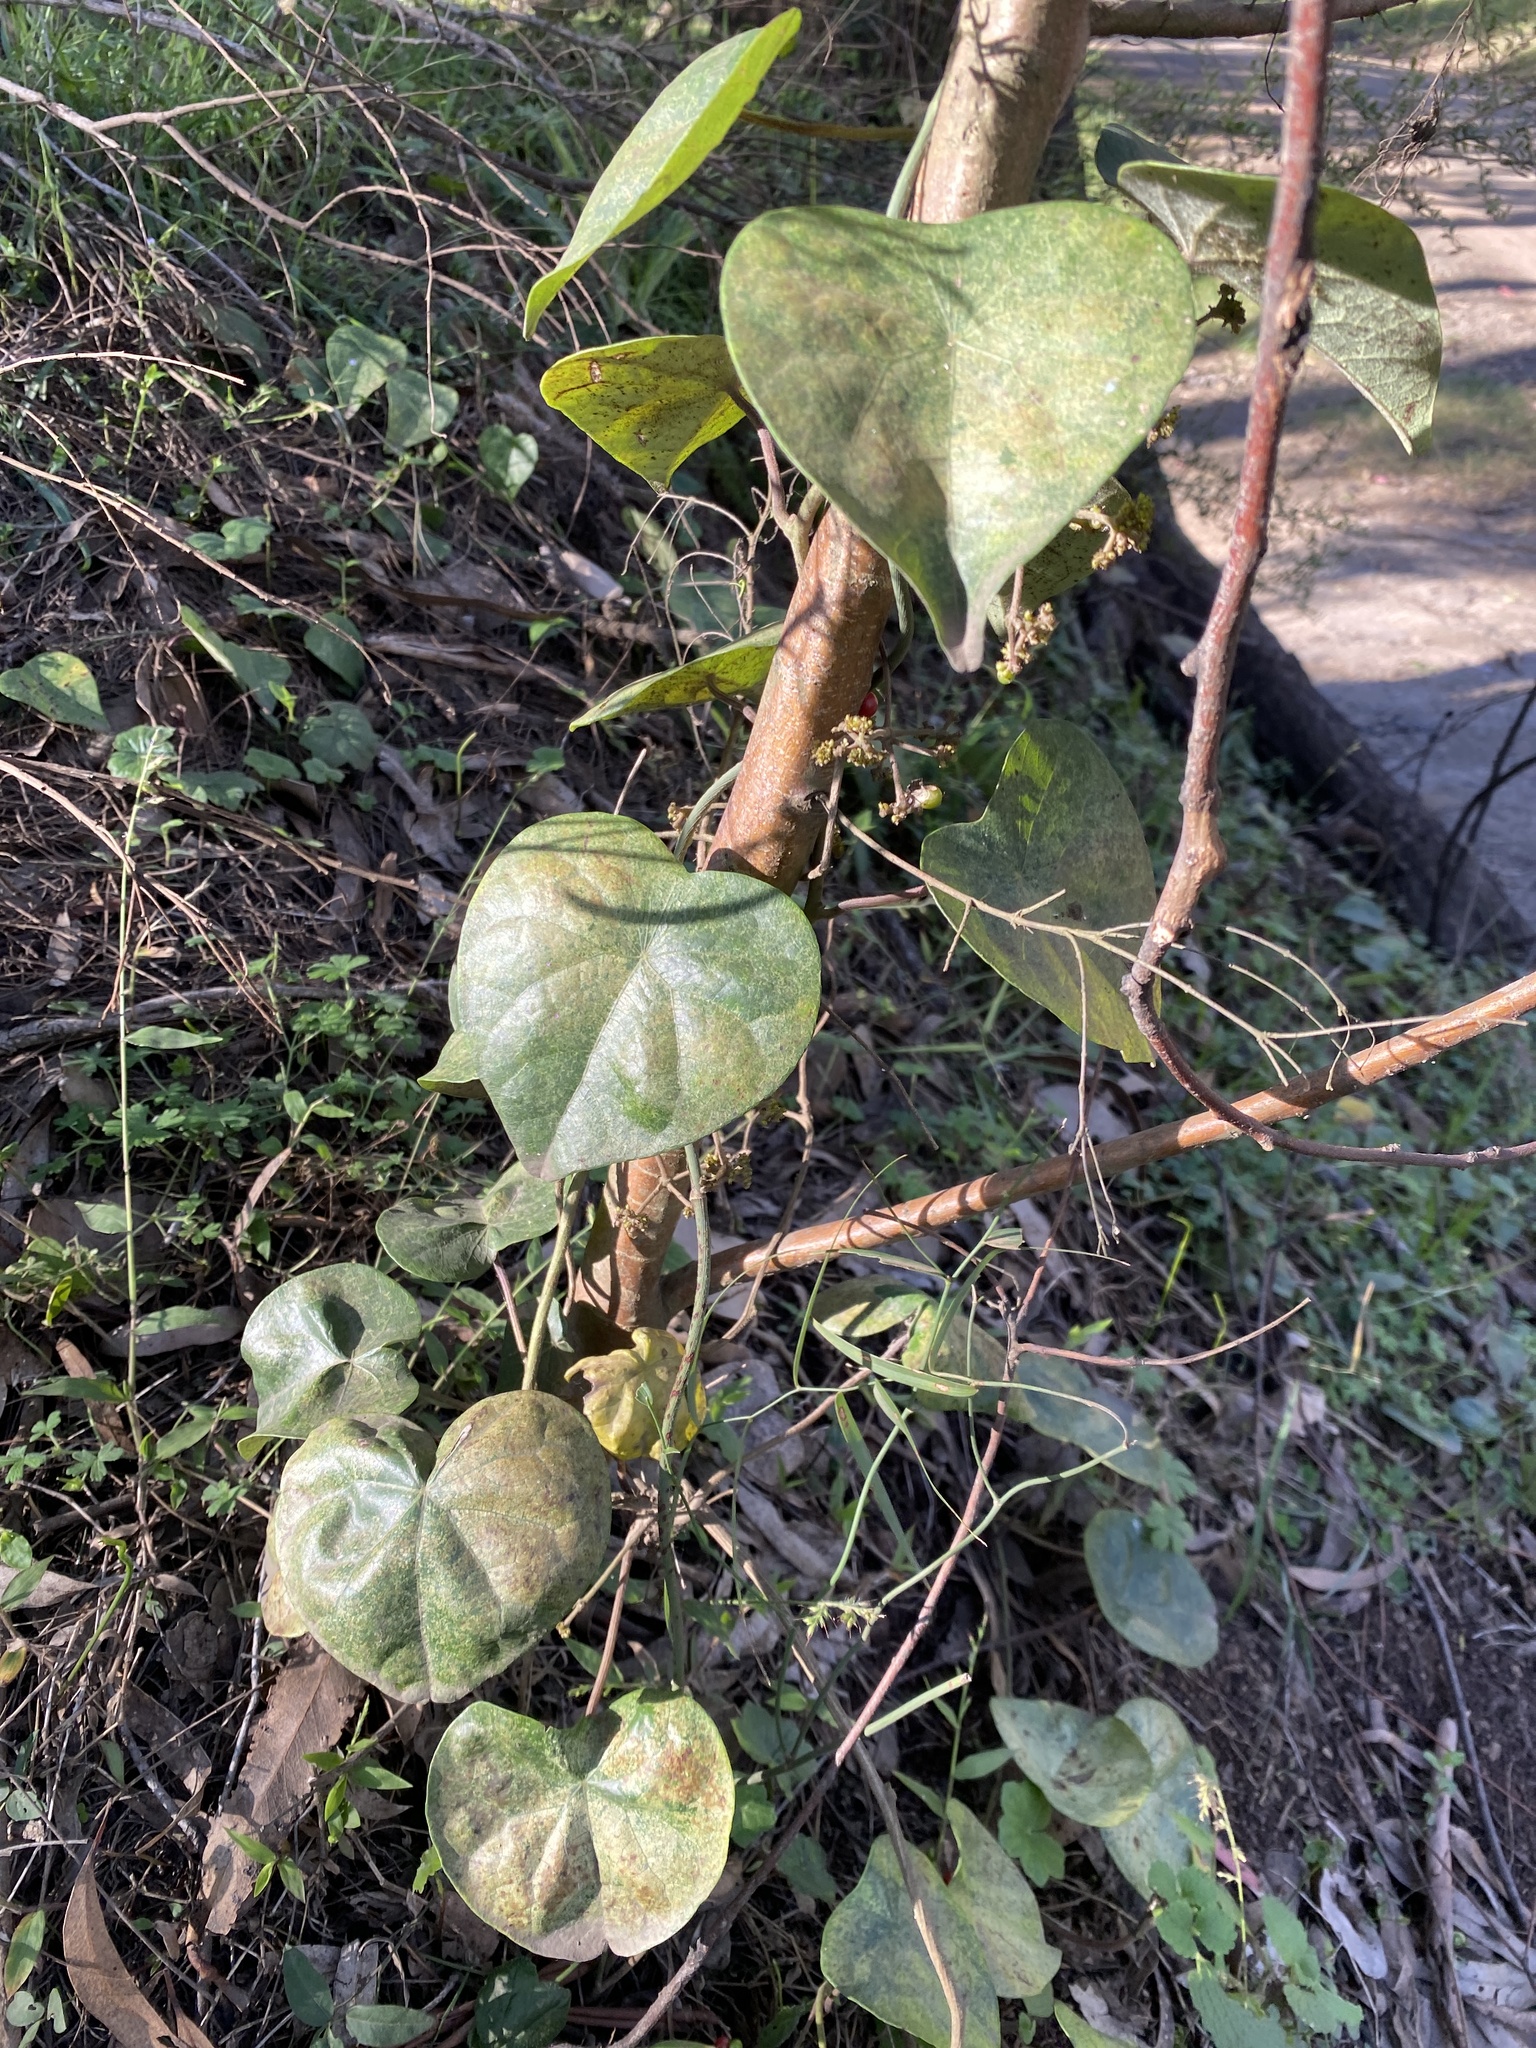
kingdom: Plantae
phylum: Tracheophyta
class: Magnoliopsida
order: Ranunculales
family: Menispermaceae
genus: Stephania
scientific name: Stephania japonica
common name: Snake vine
